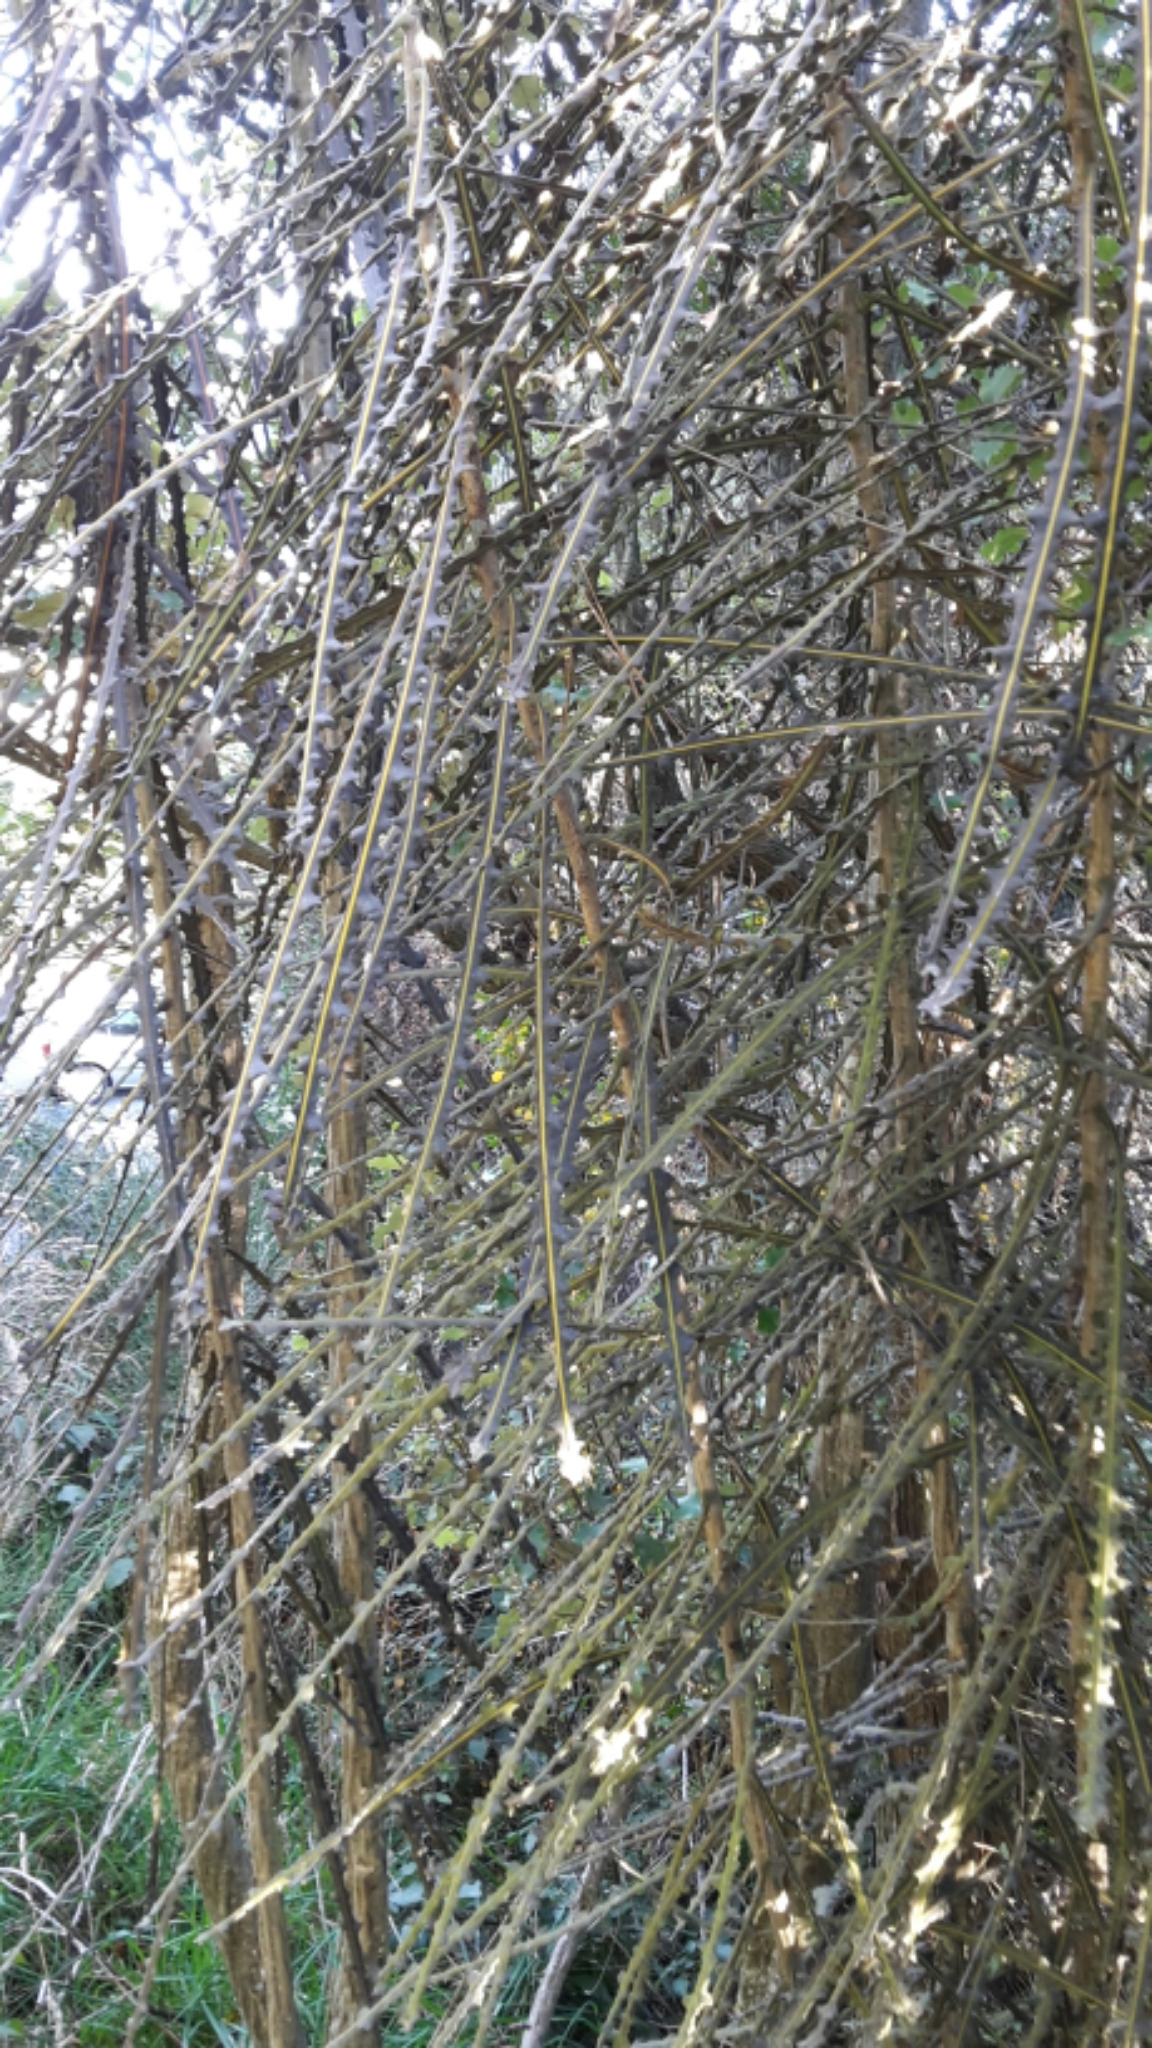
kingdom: Plantae
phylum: Tracheophyta
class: Magnoliopsida
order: Apiales
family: Araliaceae
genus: Pseudopanax
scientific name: Pseudopanax ferox
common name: Fierce lancewood
